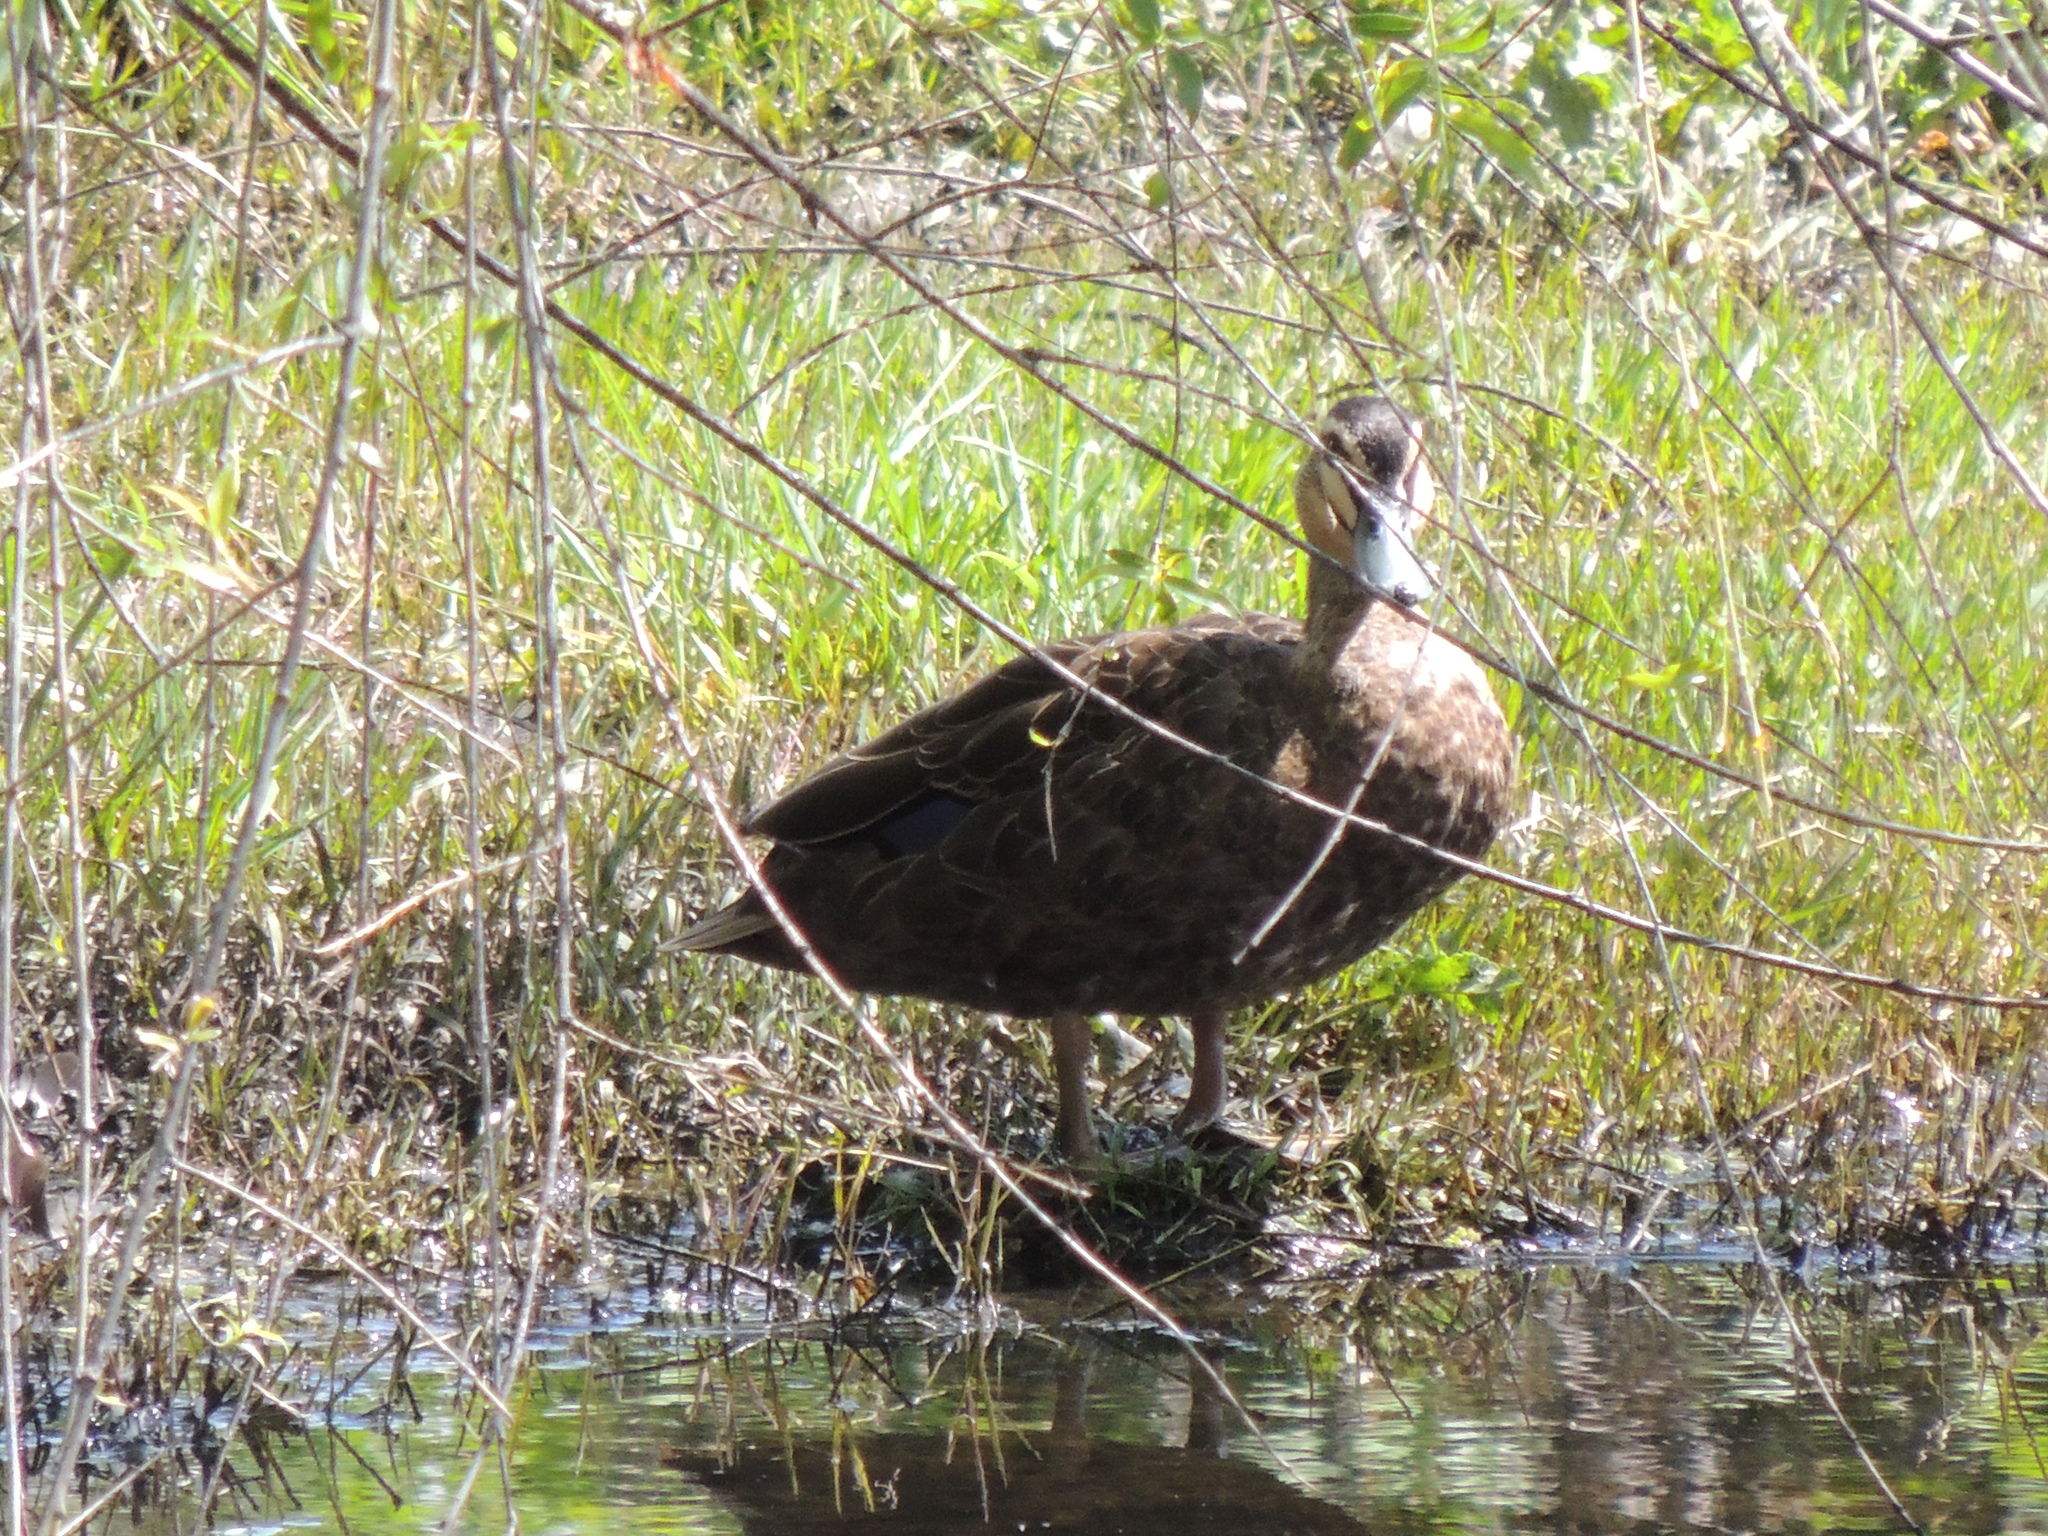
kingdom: Animalia
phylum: Chordata
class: Aves
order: Anseriformes
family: Anatidae
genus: Anas
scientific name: Anas superciliosa
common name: Pacific black duck
